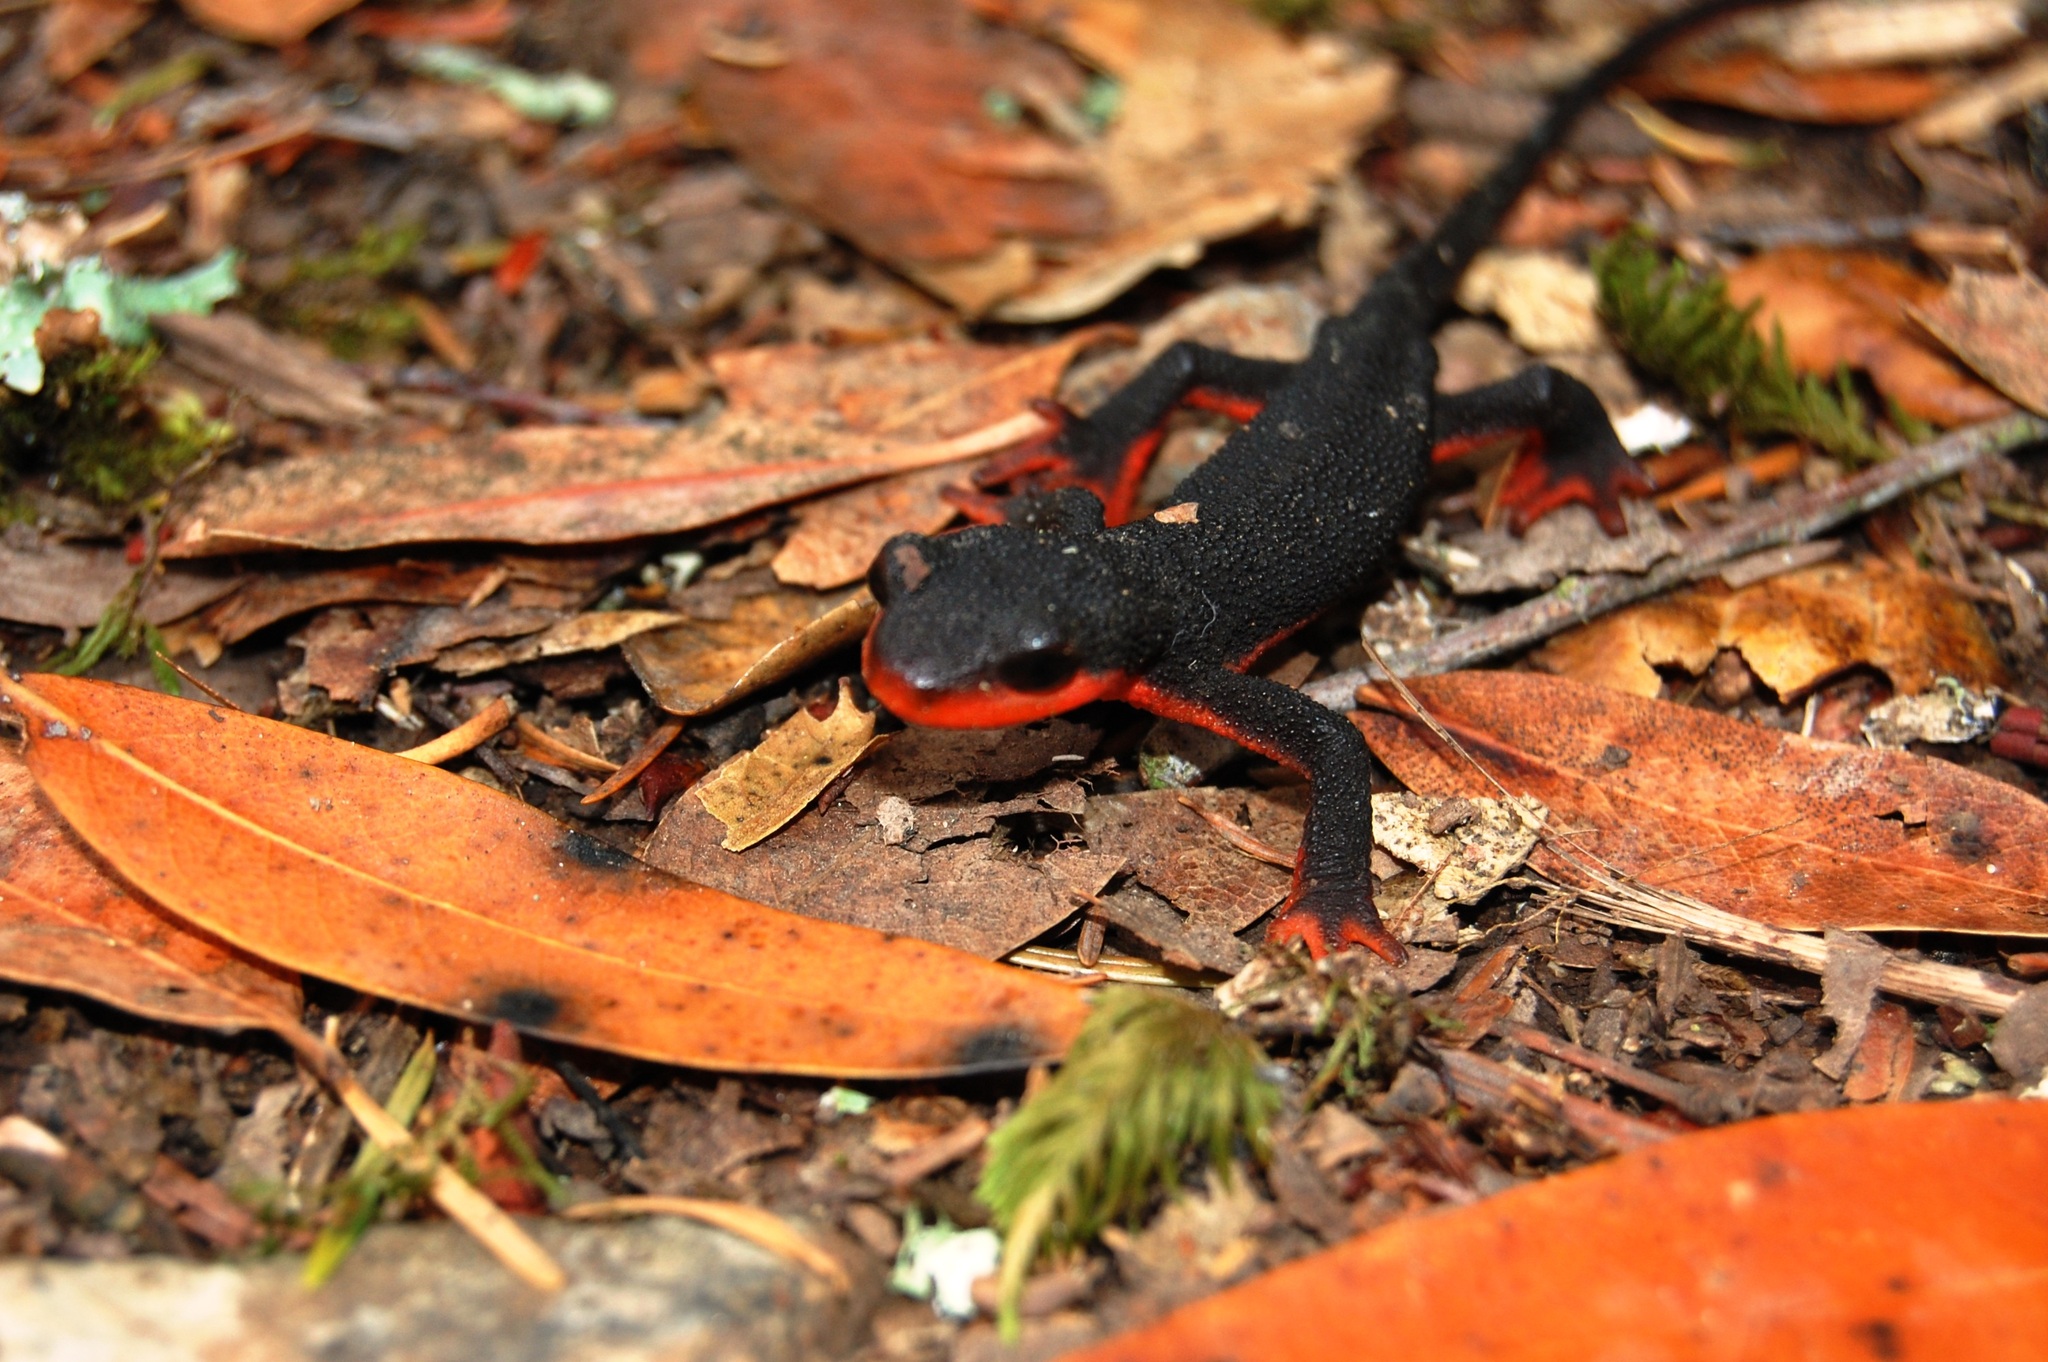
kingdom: Animalia
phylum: Chordata
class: Amphibia
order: Caudata
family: Salamandridae
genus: Taricha
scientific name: Taricha rivularis
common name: Red-bellied newt
